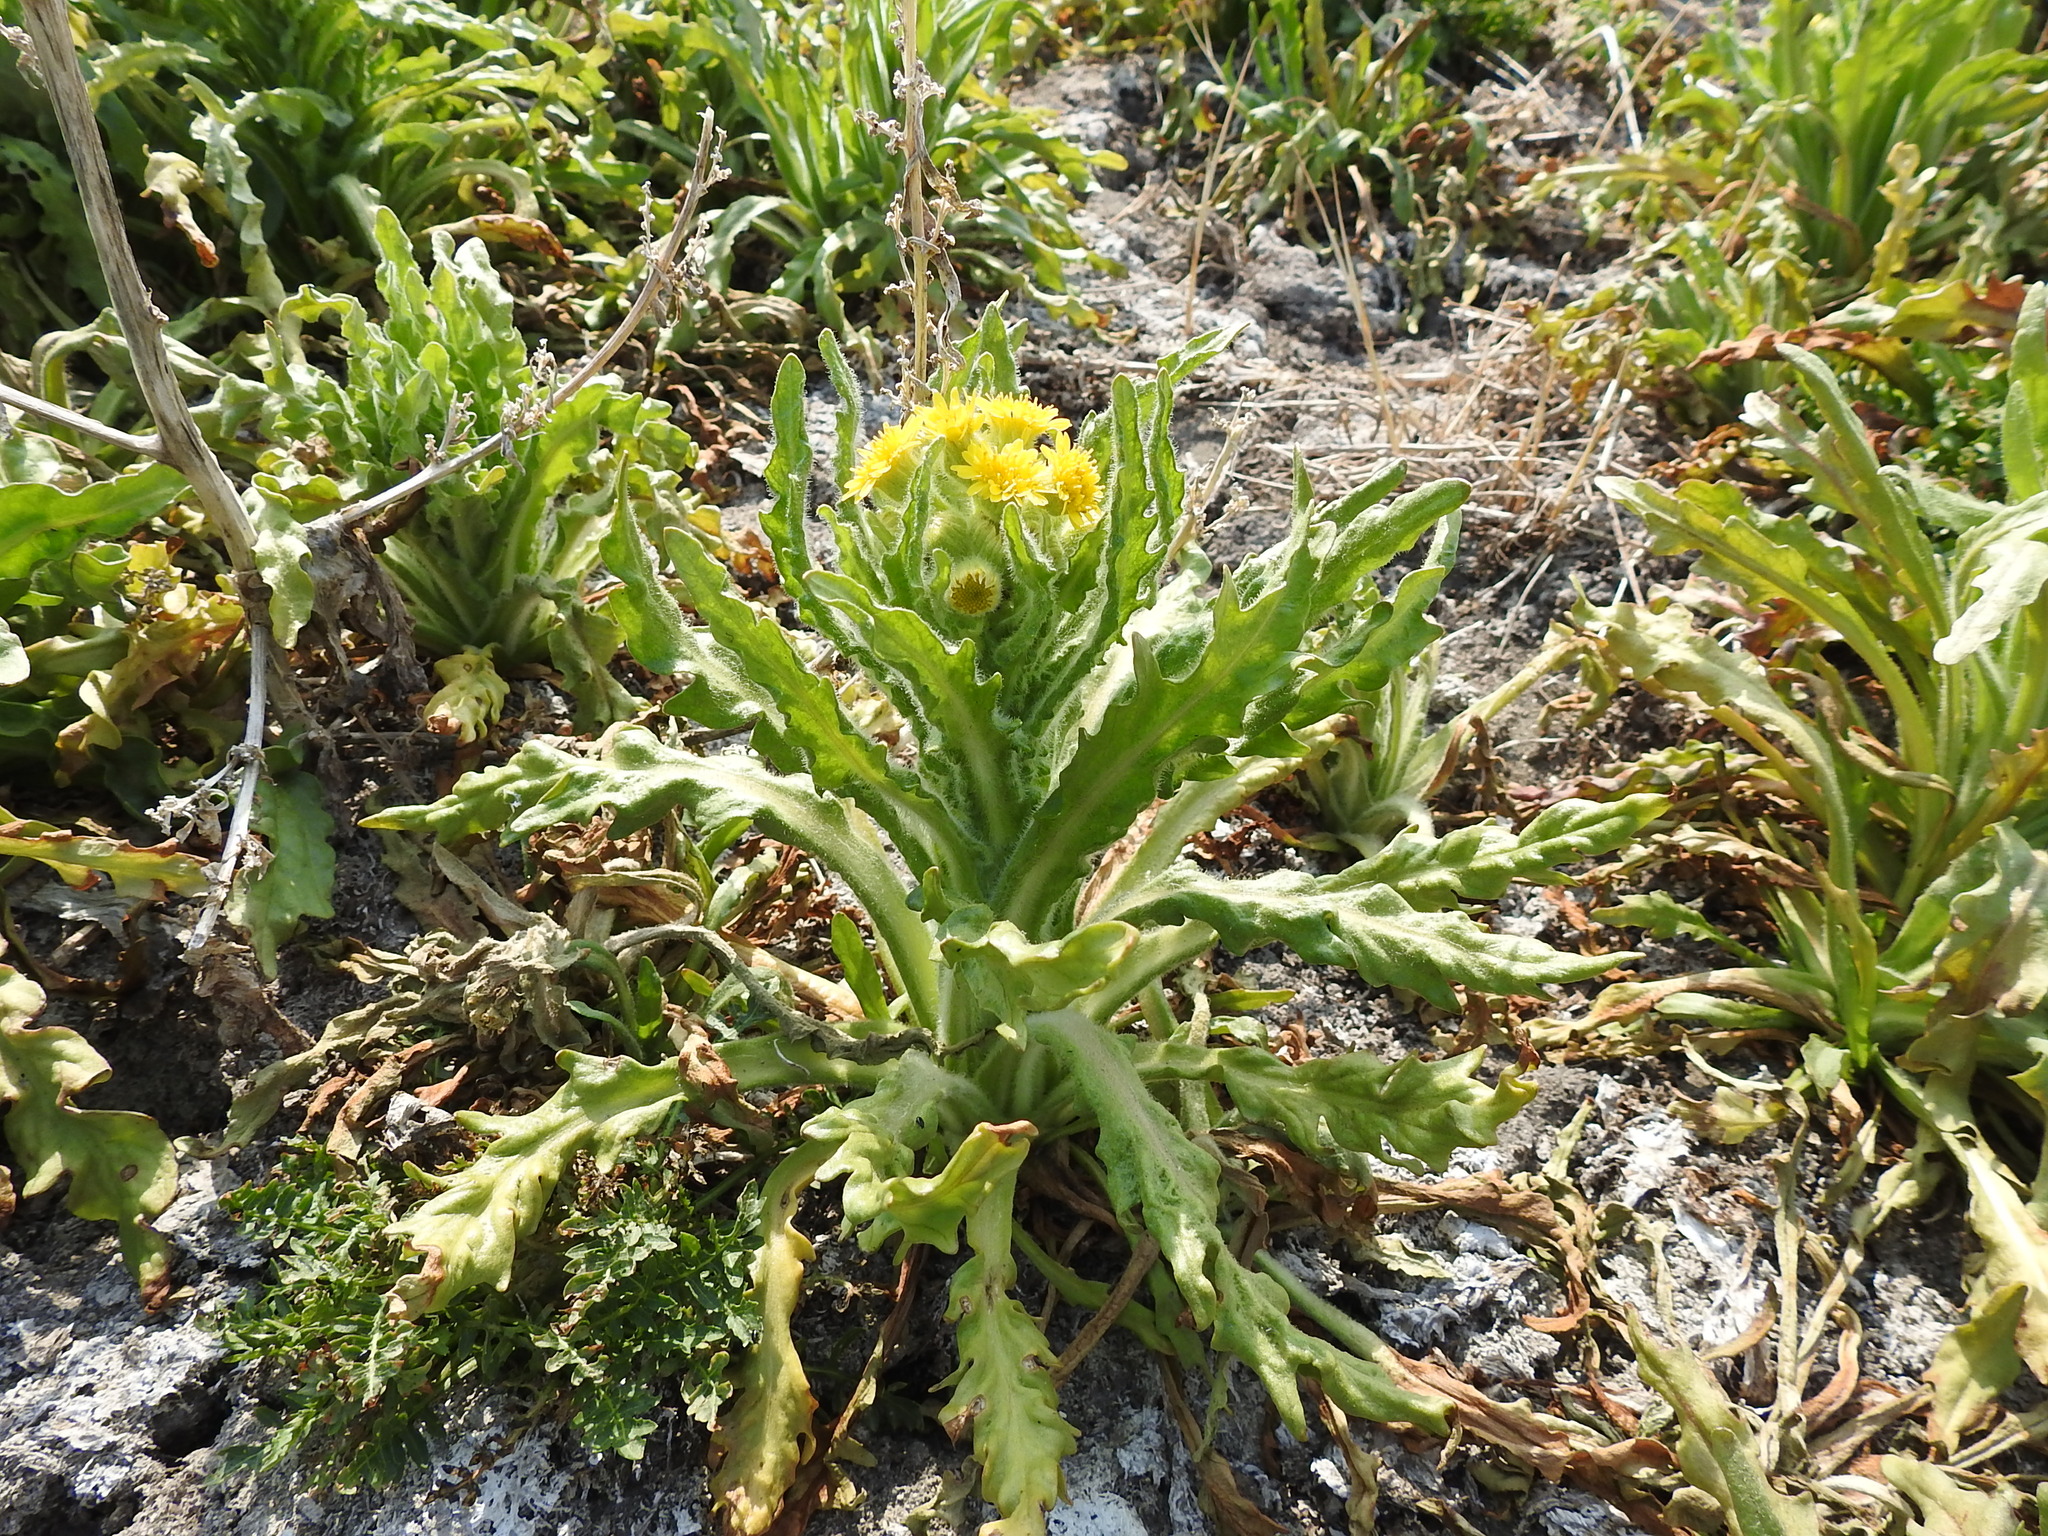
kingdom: Plantae
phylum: Tracheophyta
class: Magnoliopsida
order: Asterales
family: Asteraceae
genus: Tephroseris
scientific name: Tephroseris palustris
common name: Marsh fleawort
